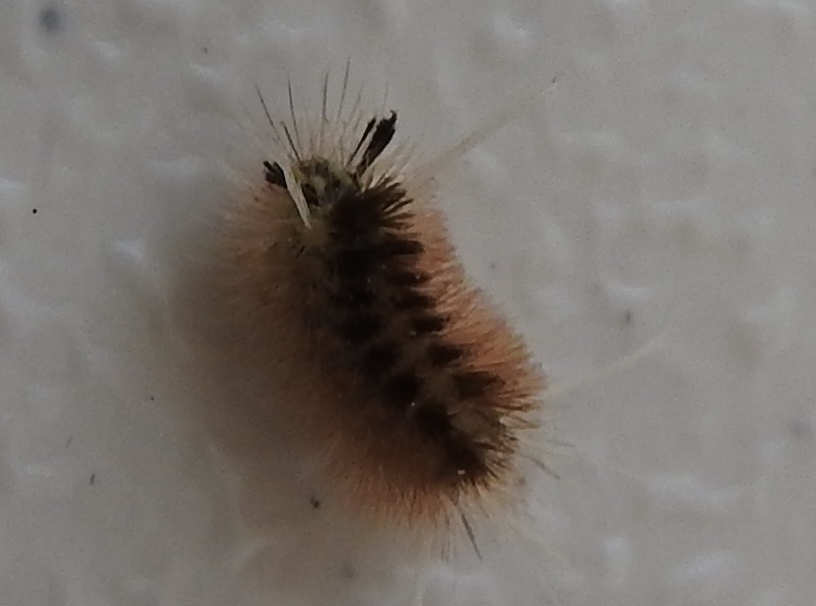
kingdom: Animalia
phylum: Arthropoda
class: Insecta
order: Lepidoptera
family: Erebidae
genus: Arctiinae
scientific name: Arctiinae
